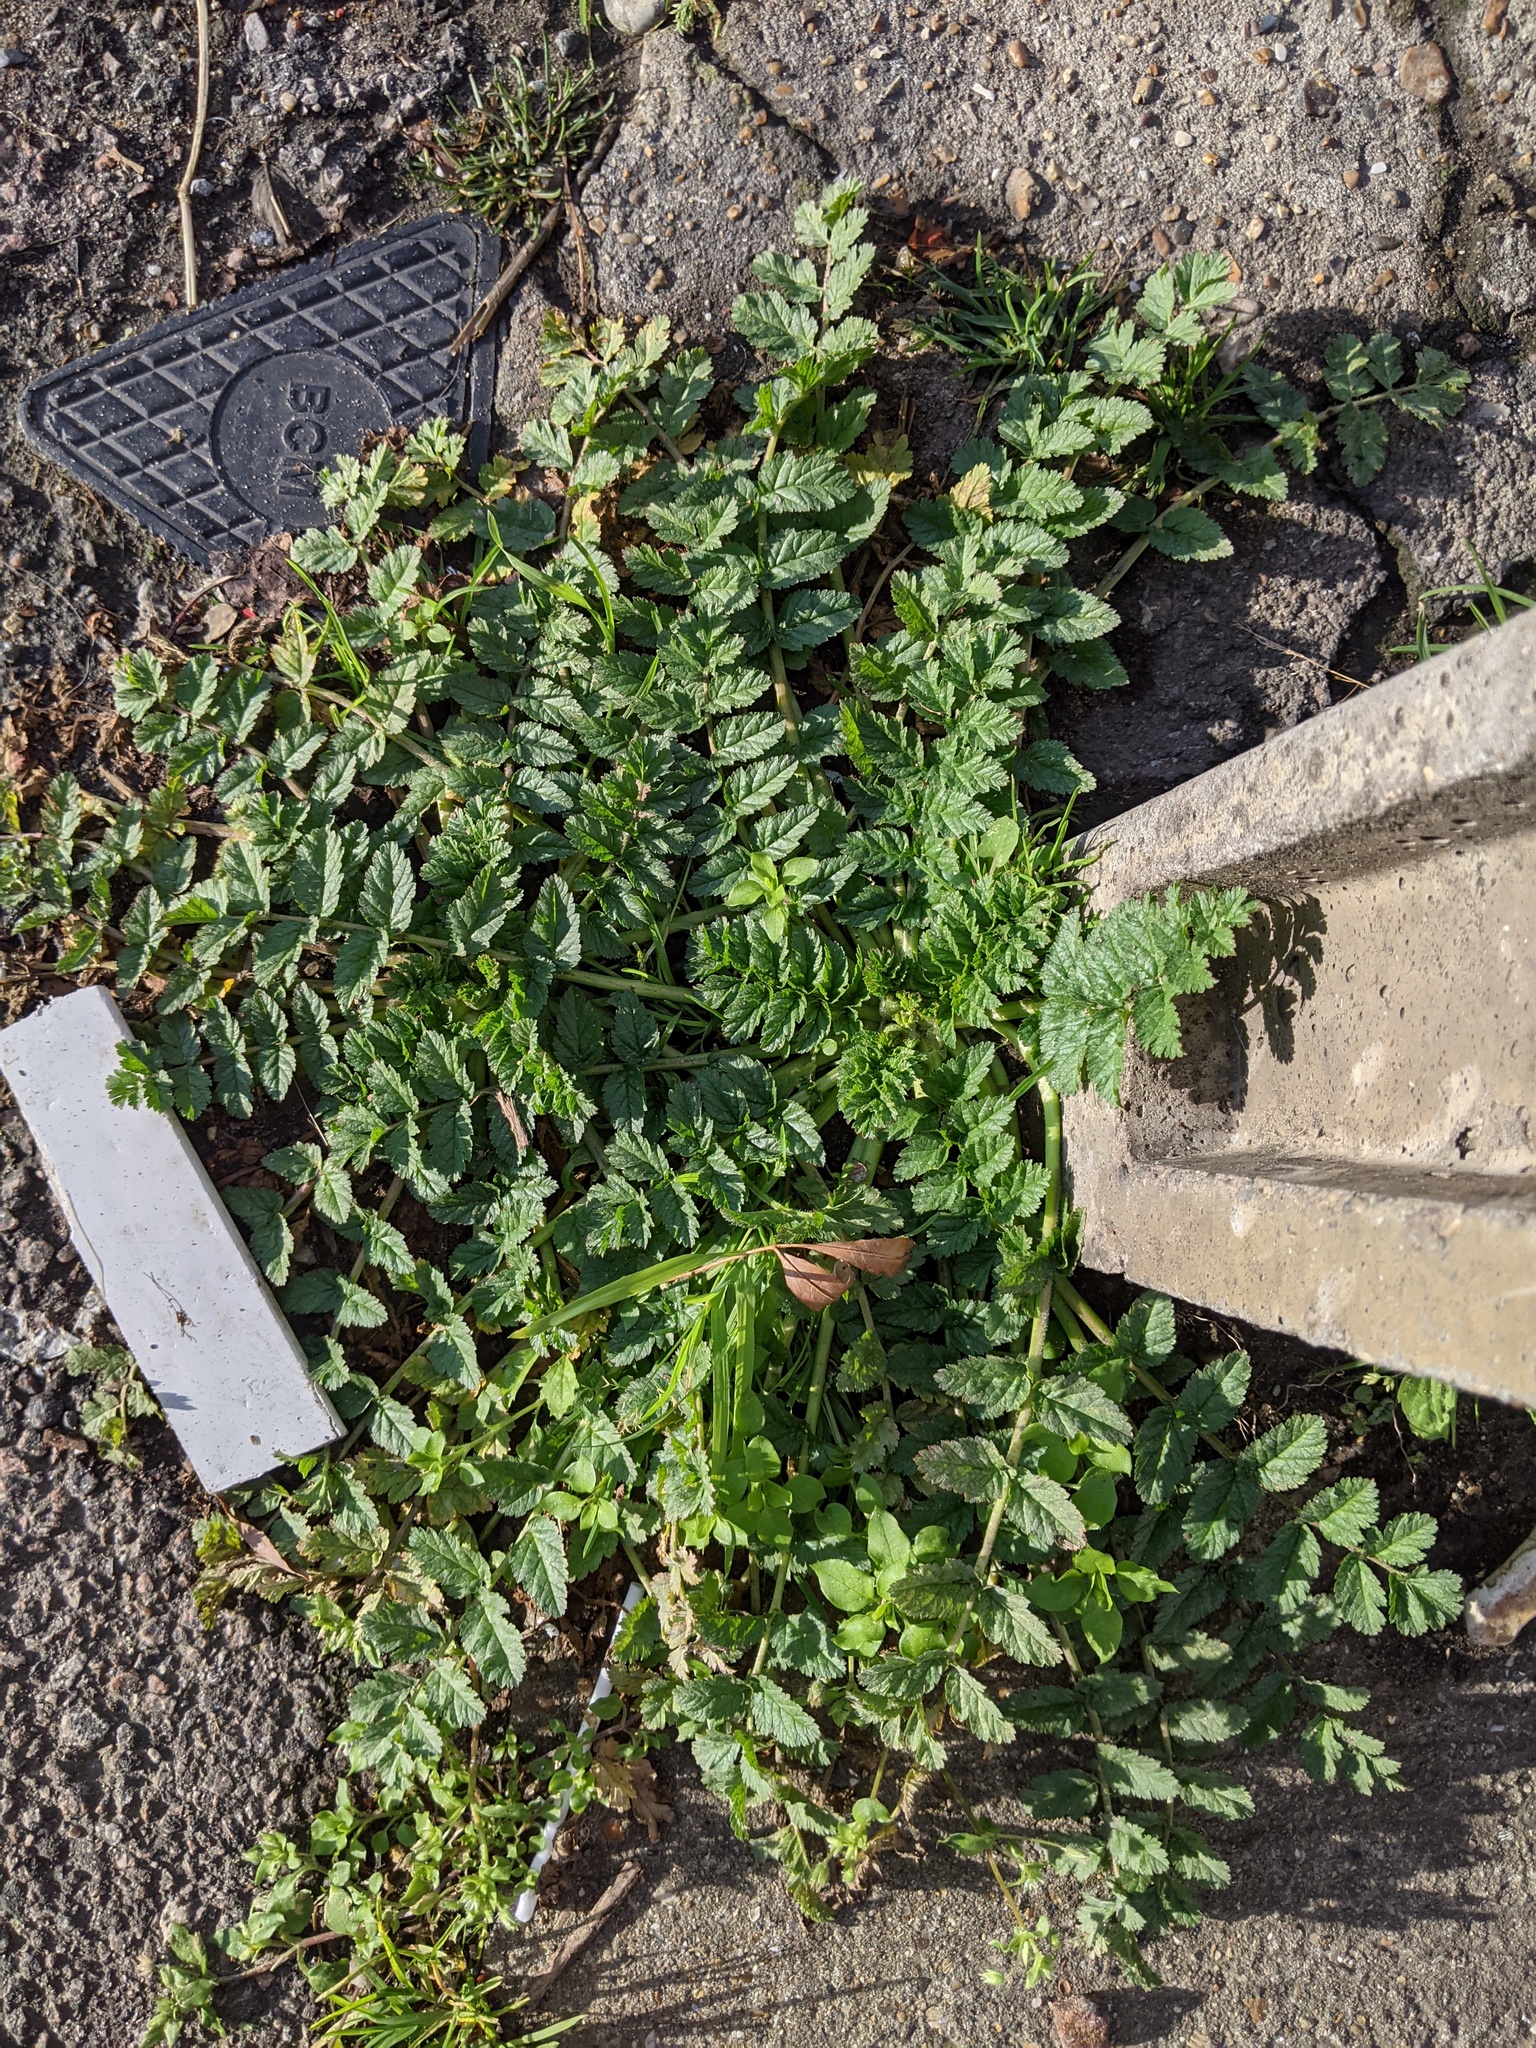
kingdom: Plantae
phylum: Tracheophyta
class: Magnoliopsida
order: Geraniales
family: Geraniaceae
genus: Erodium
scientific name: Erodium moschatum
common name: Musk stork's-bill
